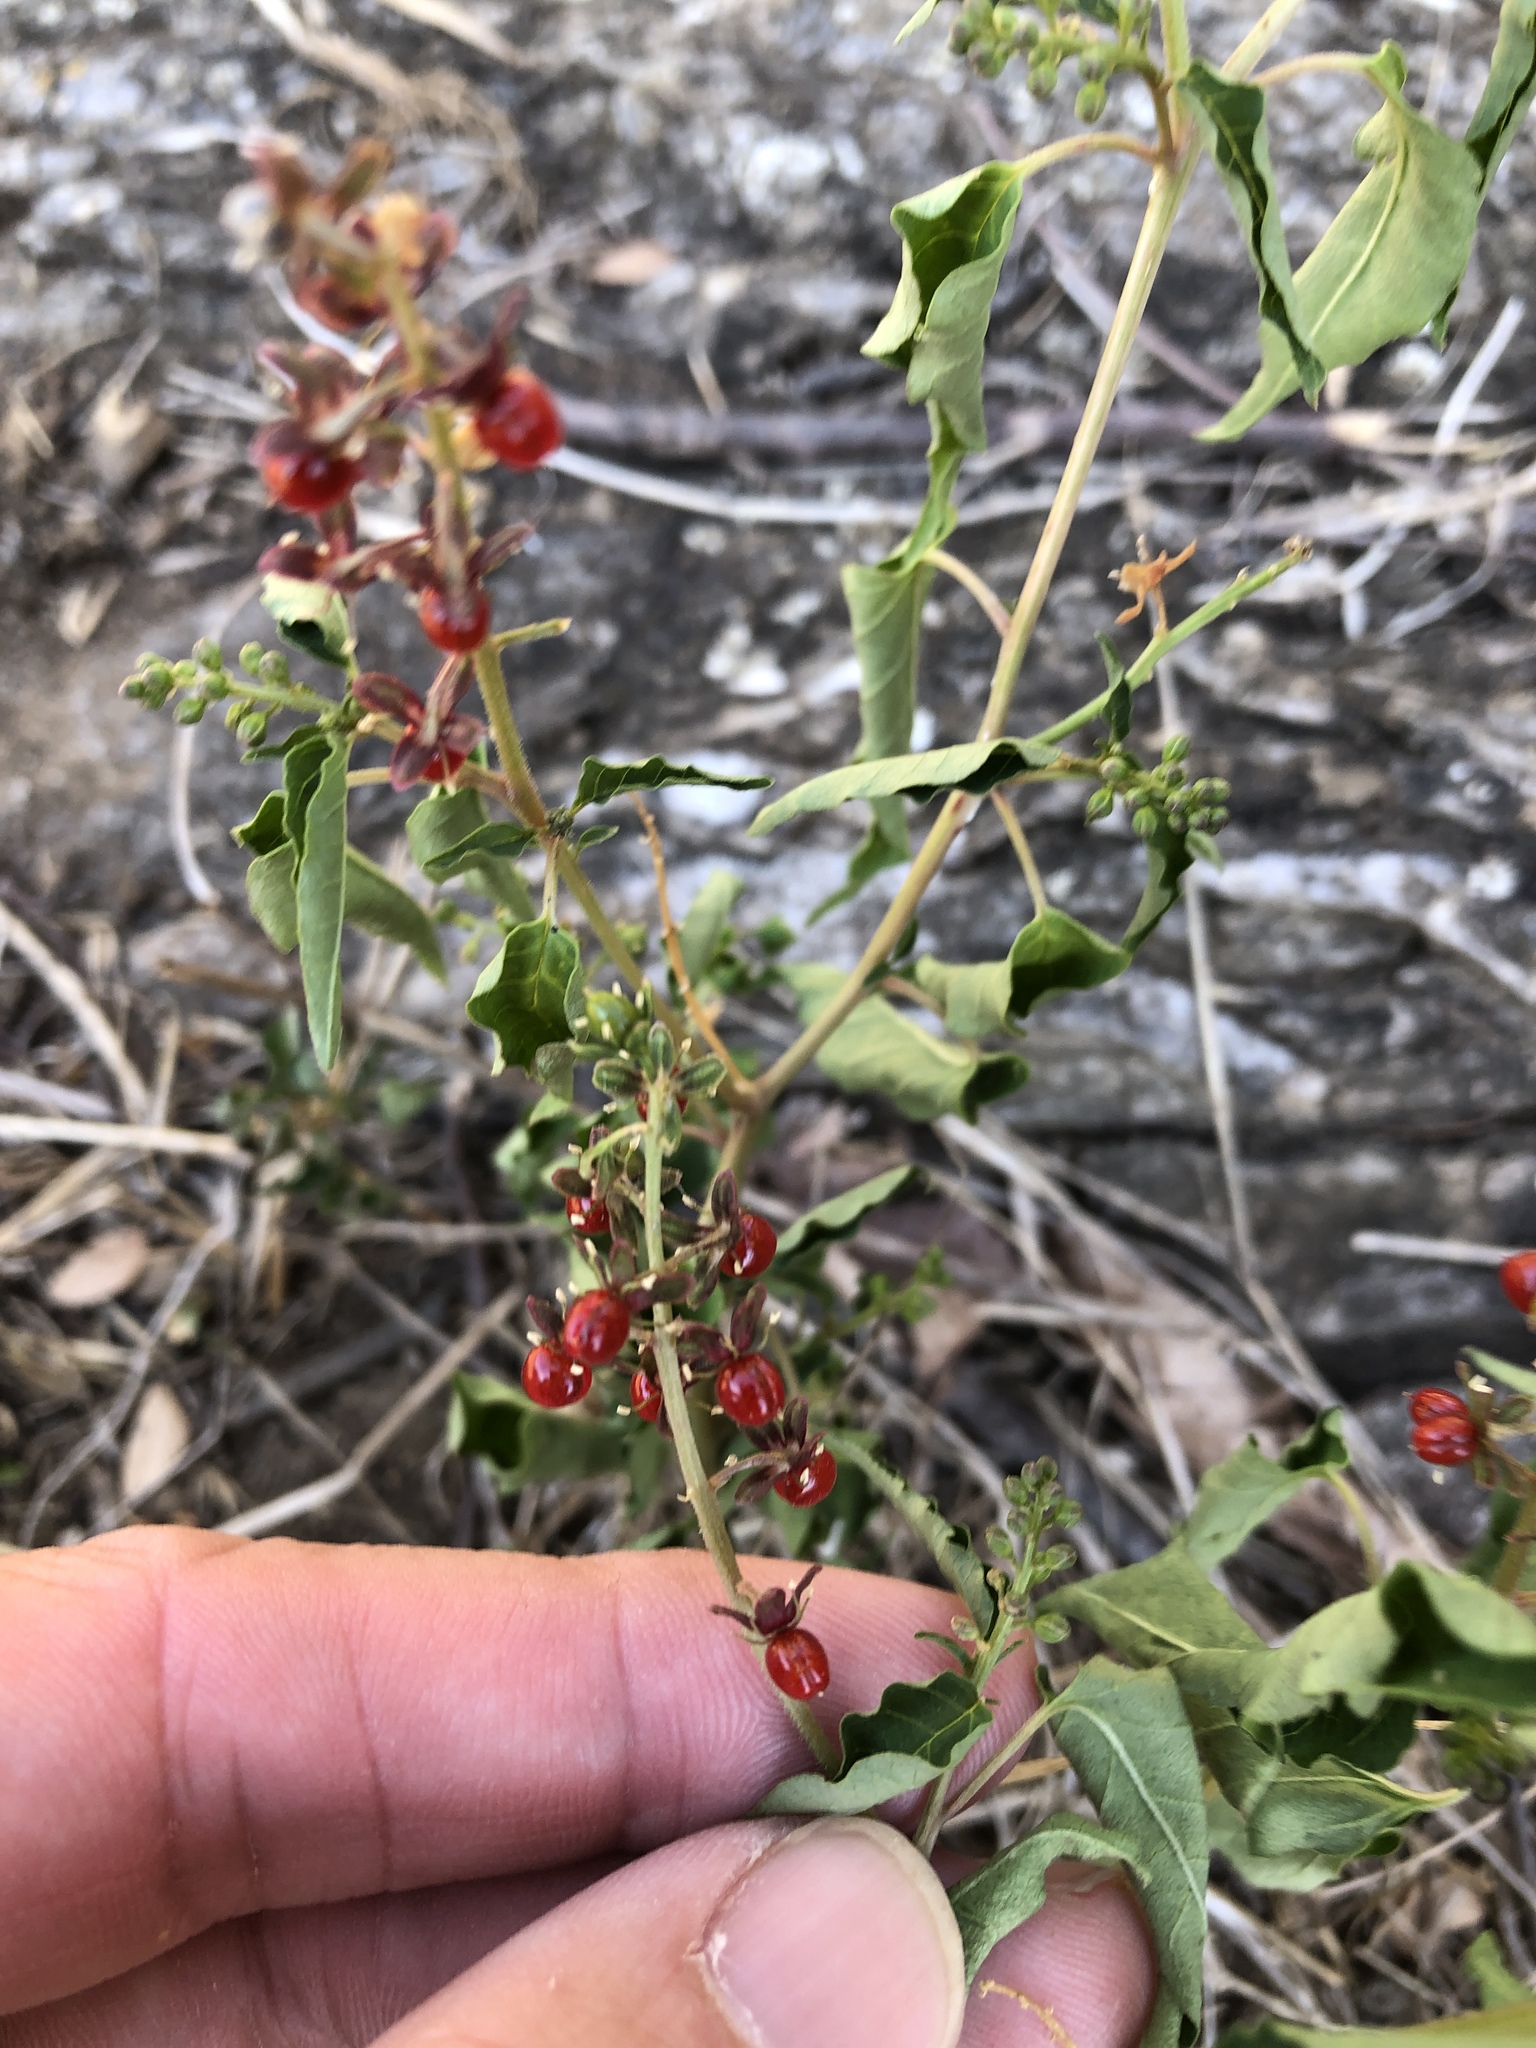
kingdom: Plantae
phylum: Tracheophyta
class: Magnoliopsida
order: Caryophyllales
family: Phytolaccaceae
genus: Rivina
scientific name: Rivina humilis
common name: Rougeplant
